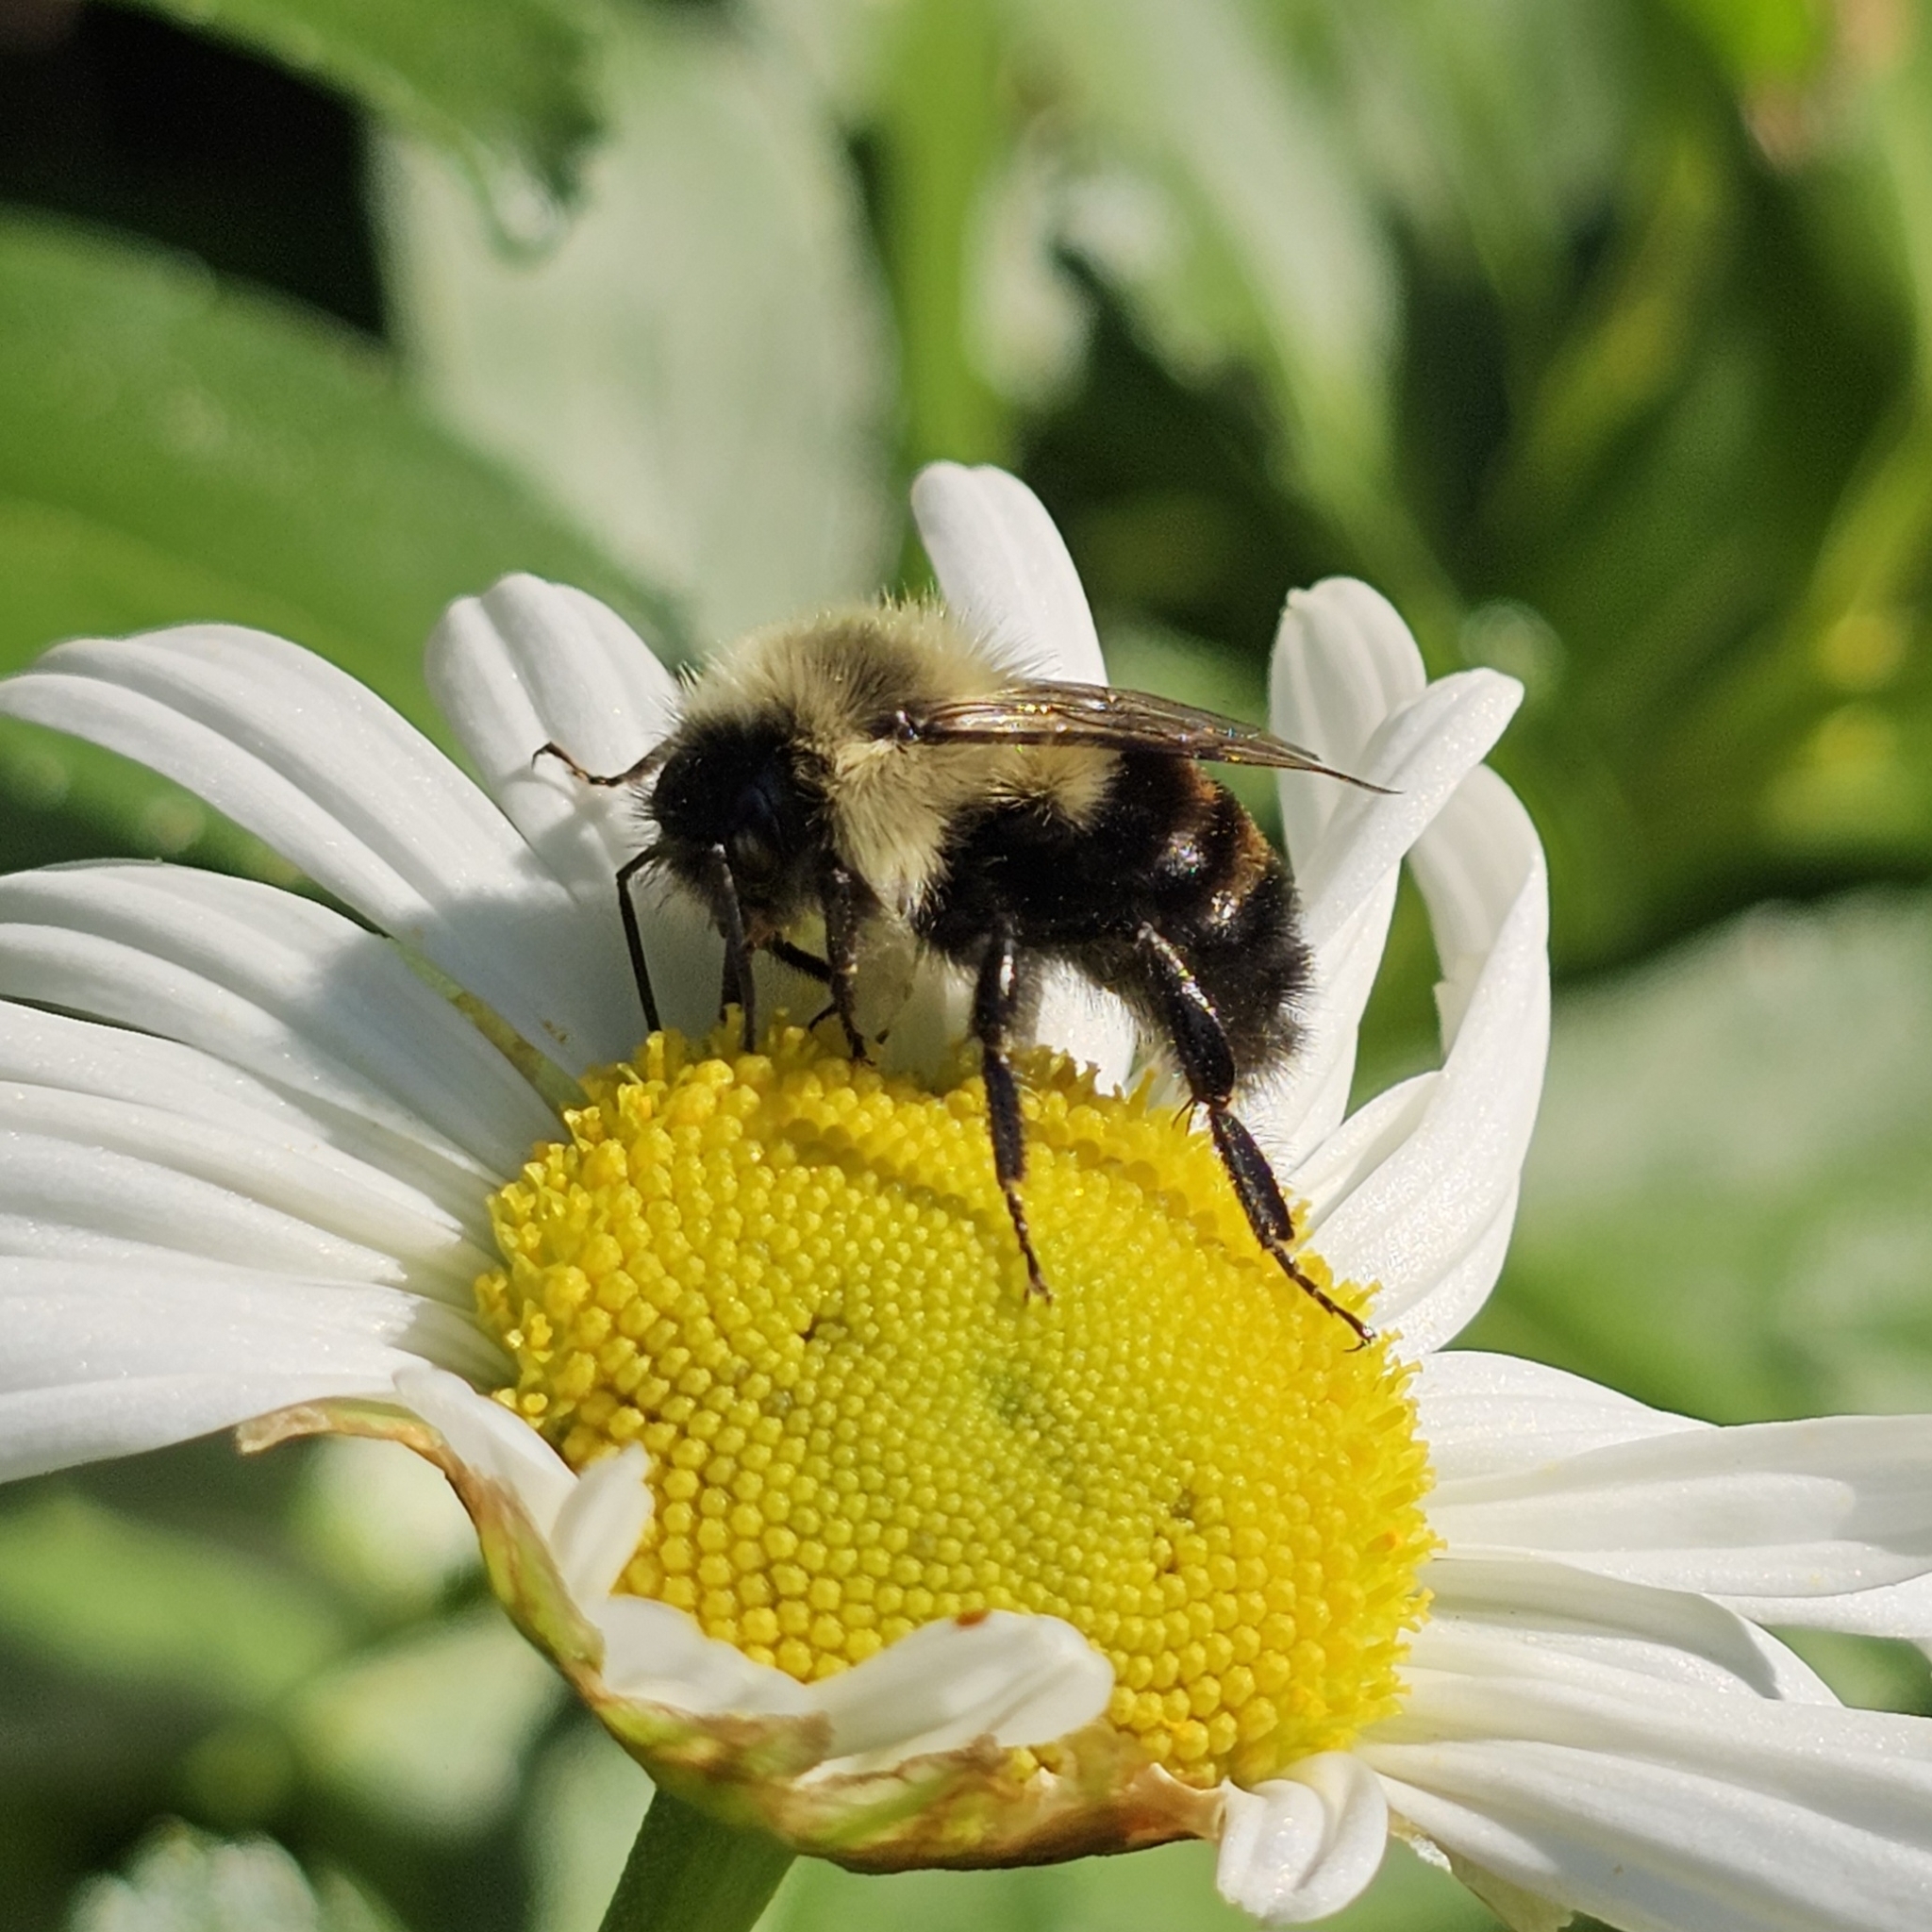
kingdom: Animalia
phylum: Arthropoda
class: Insecta
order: Hymenoptera
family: Apidae
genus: Bombus
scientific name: Bombus impatiens
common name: Common eastern bumble bee
